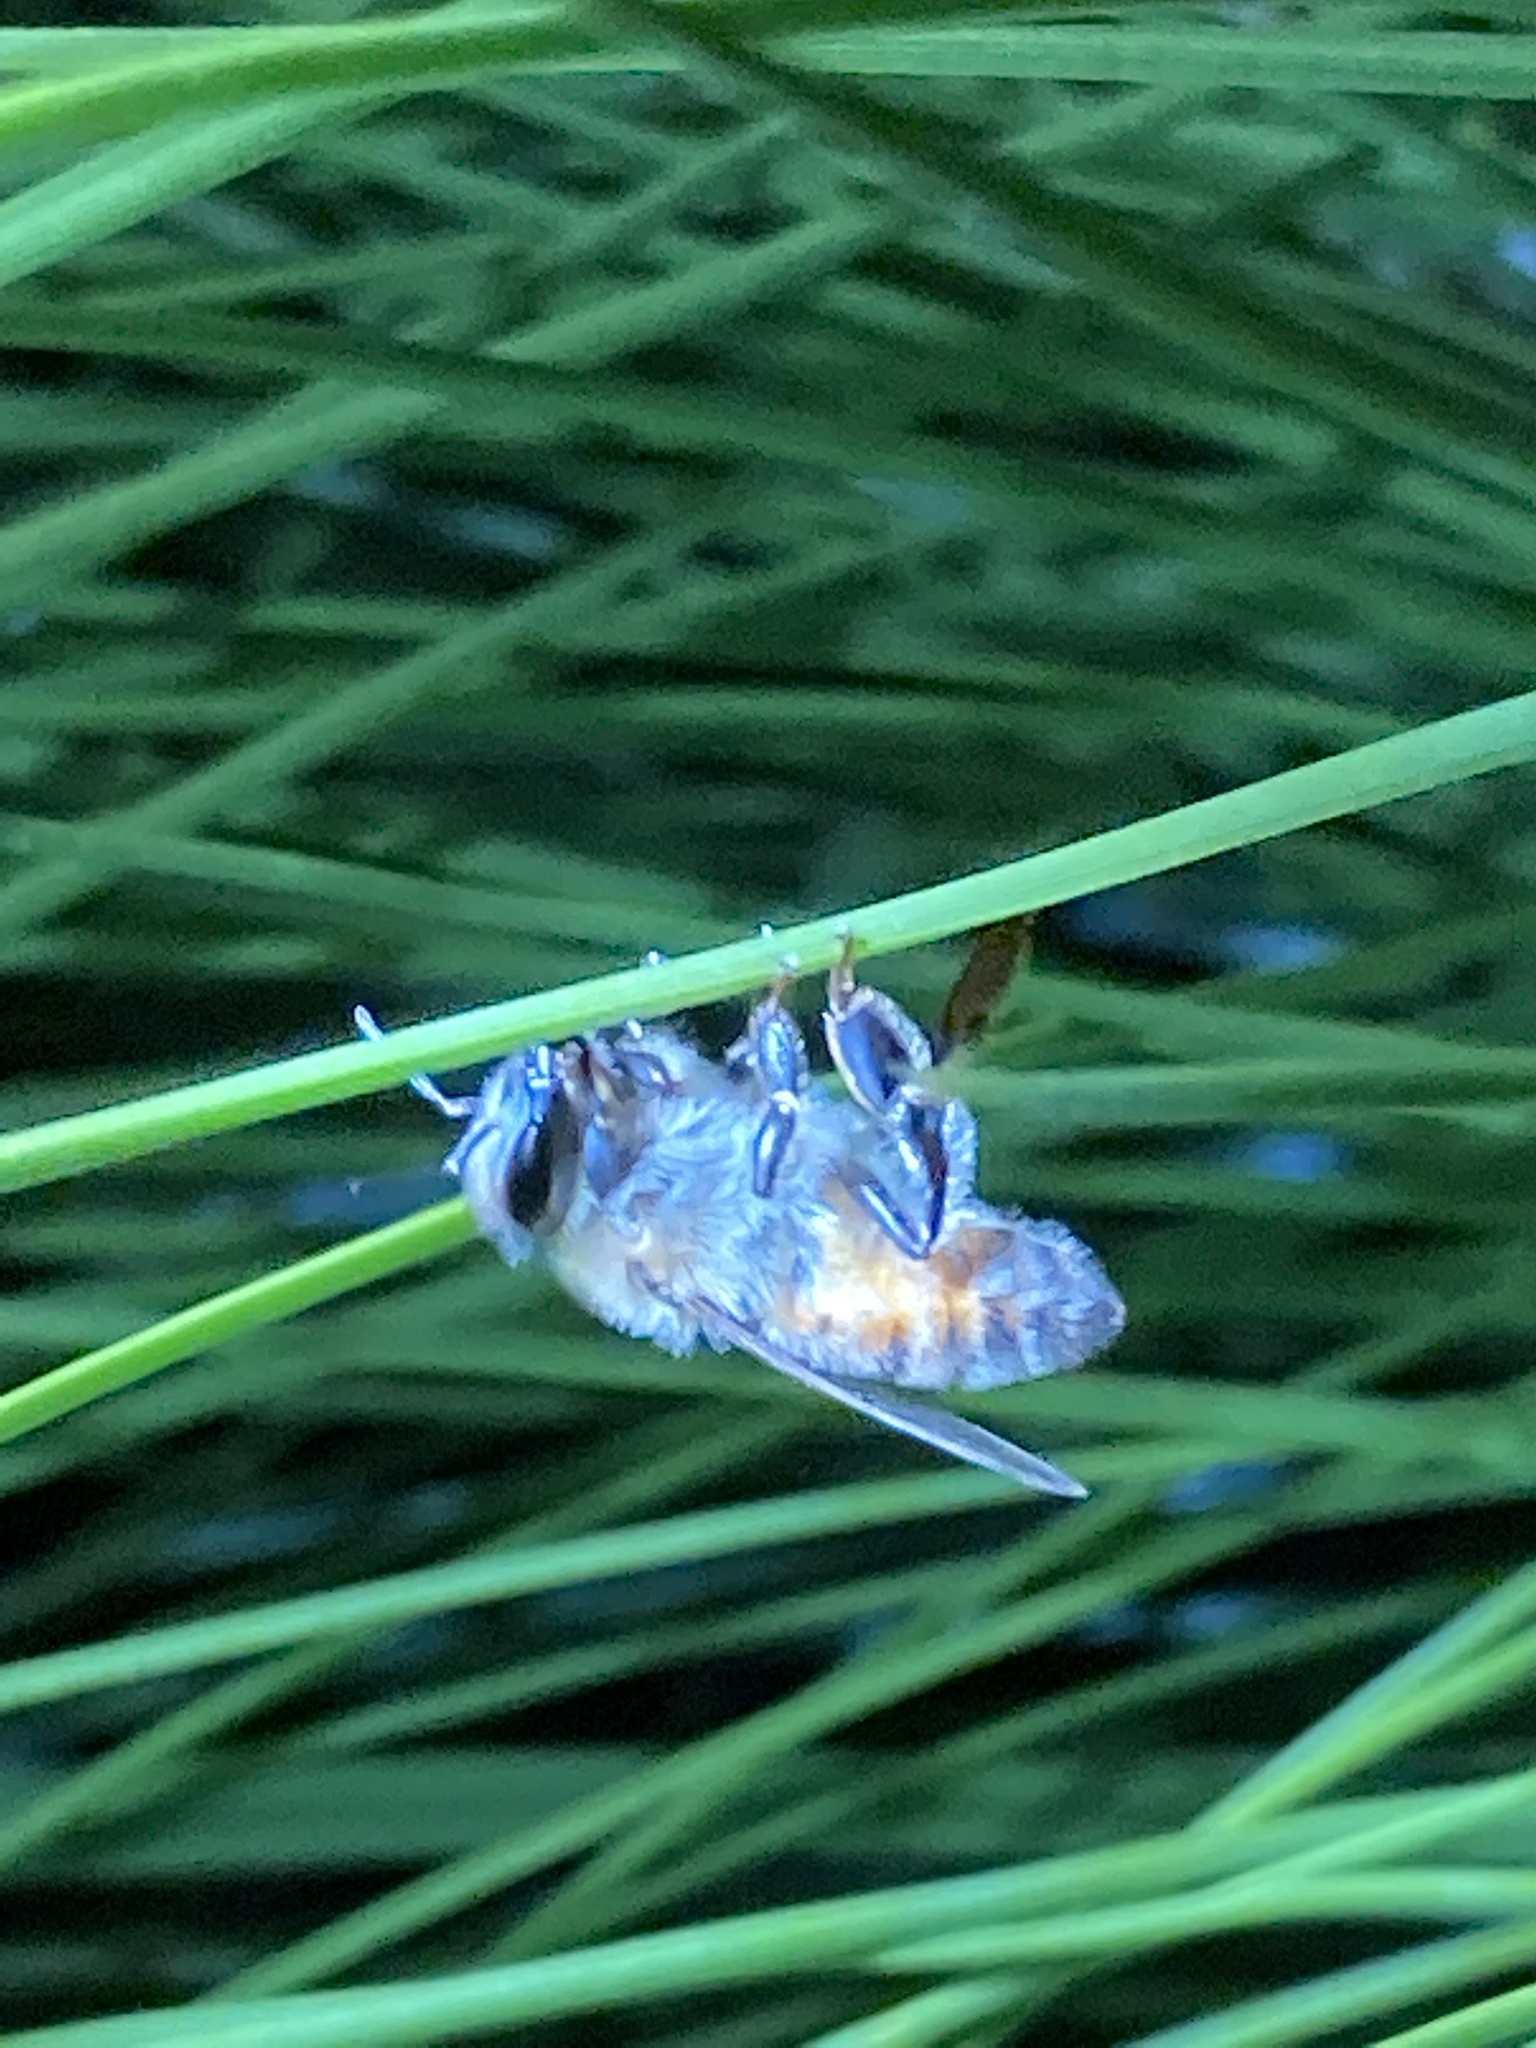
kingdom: Animalia
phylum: Arthropoda
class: Insecta
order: Hymenoptera
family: Apidae
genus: Apis
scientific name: Apis mellifera
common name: Honey bee
